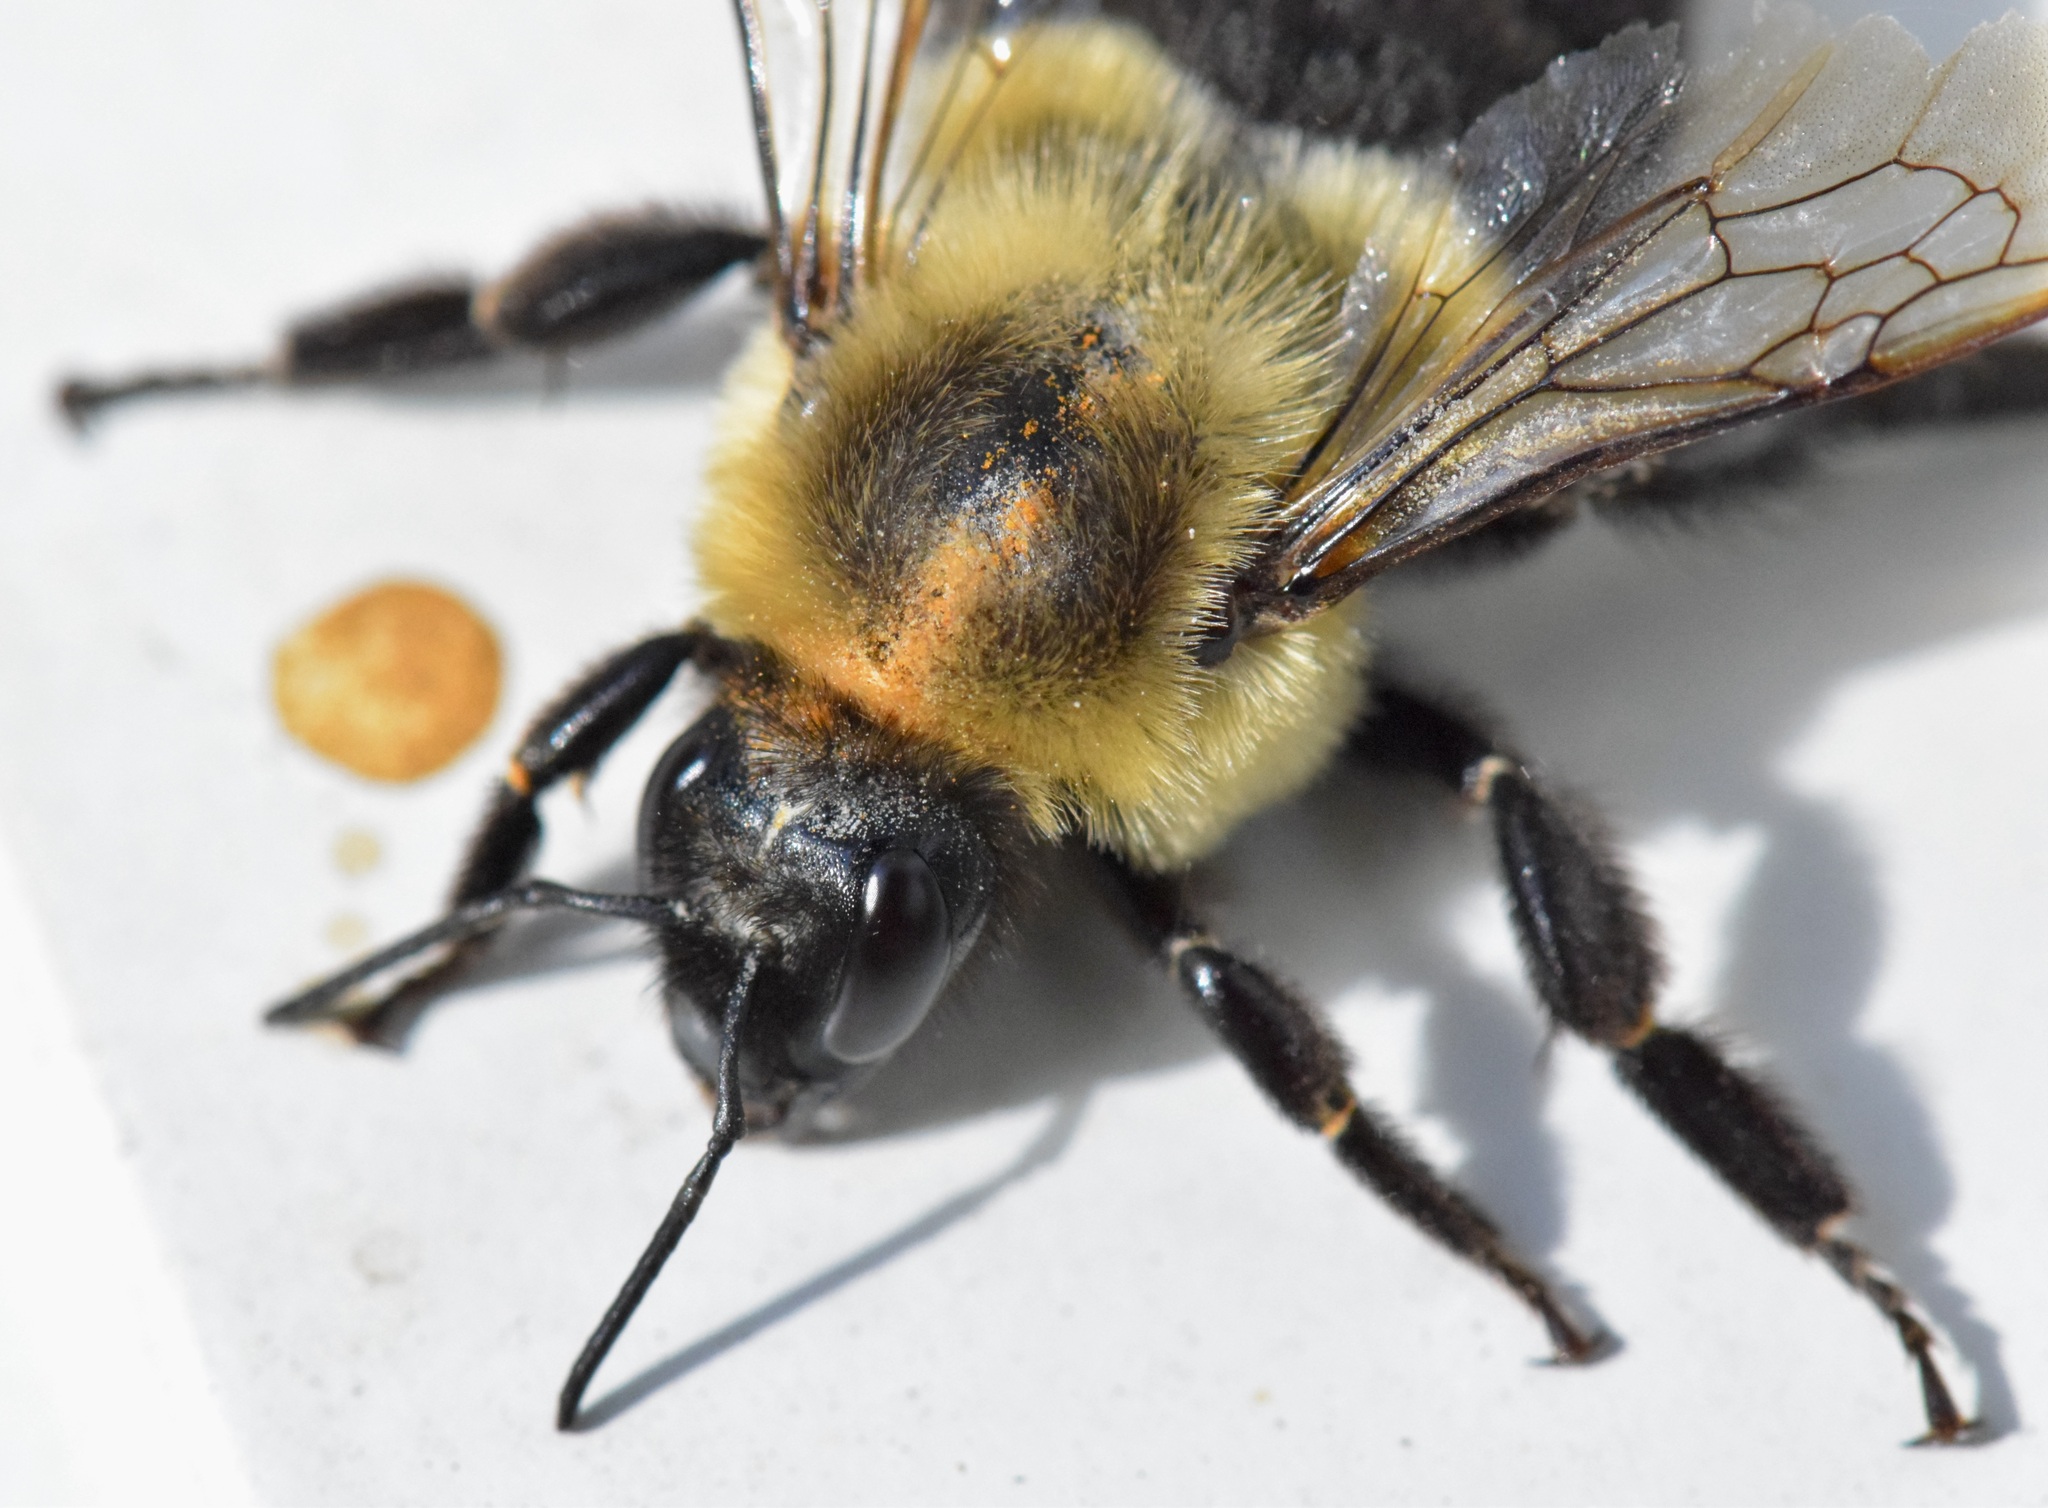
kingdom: Animalia
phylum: Arthropoda
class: Insecta
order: Hymenoptera
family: Apidae
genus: Bombus
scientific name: Bombus impatiens
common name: Common eastern bumble bee
